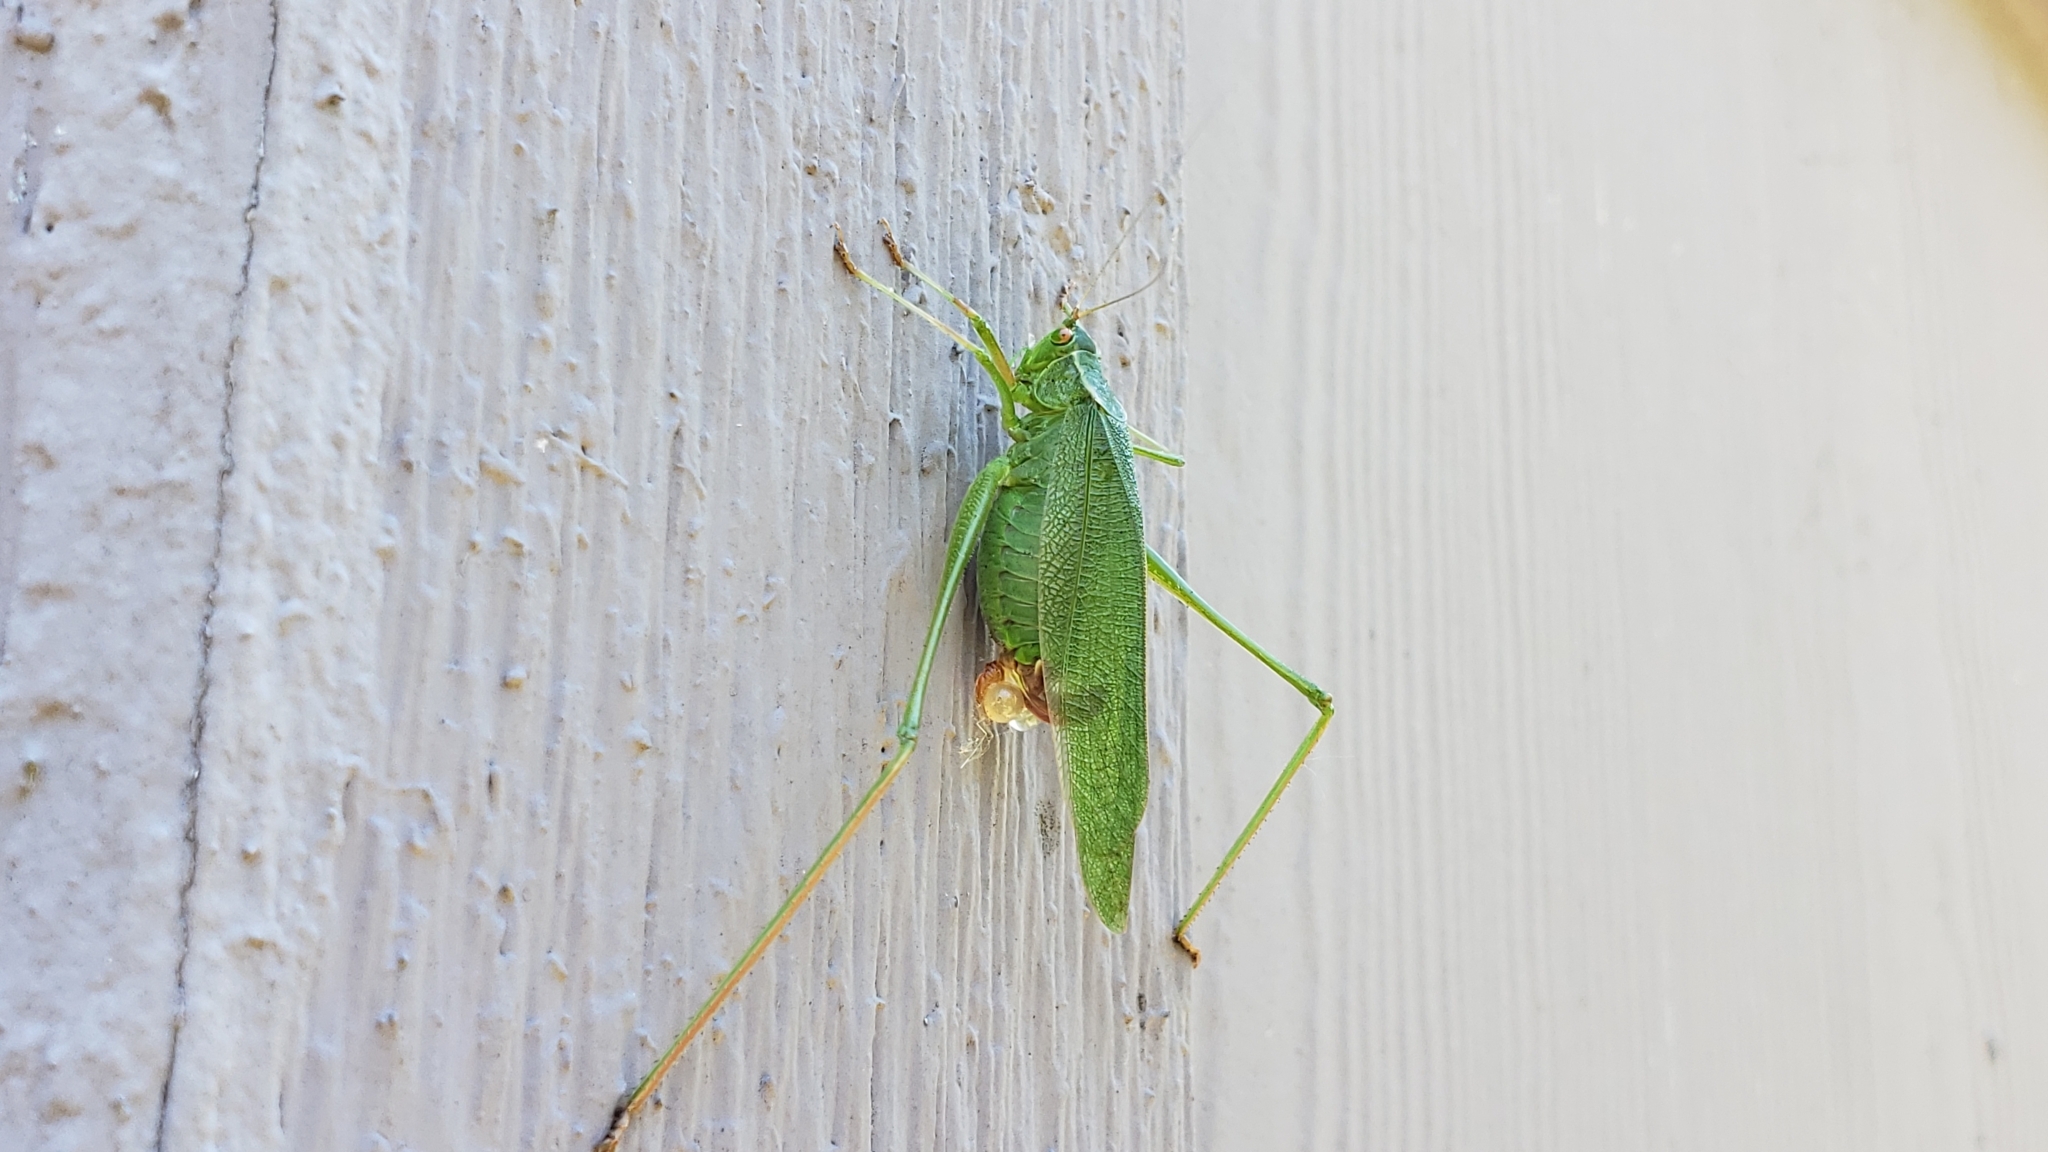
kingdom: Animalia
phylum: Arthropoda
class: Insecta
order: Orthoptera
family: Tettigoniidae
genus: Scudderia
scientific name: Scudderia furcata
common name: Fork-tailed bush katydid
